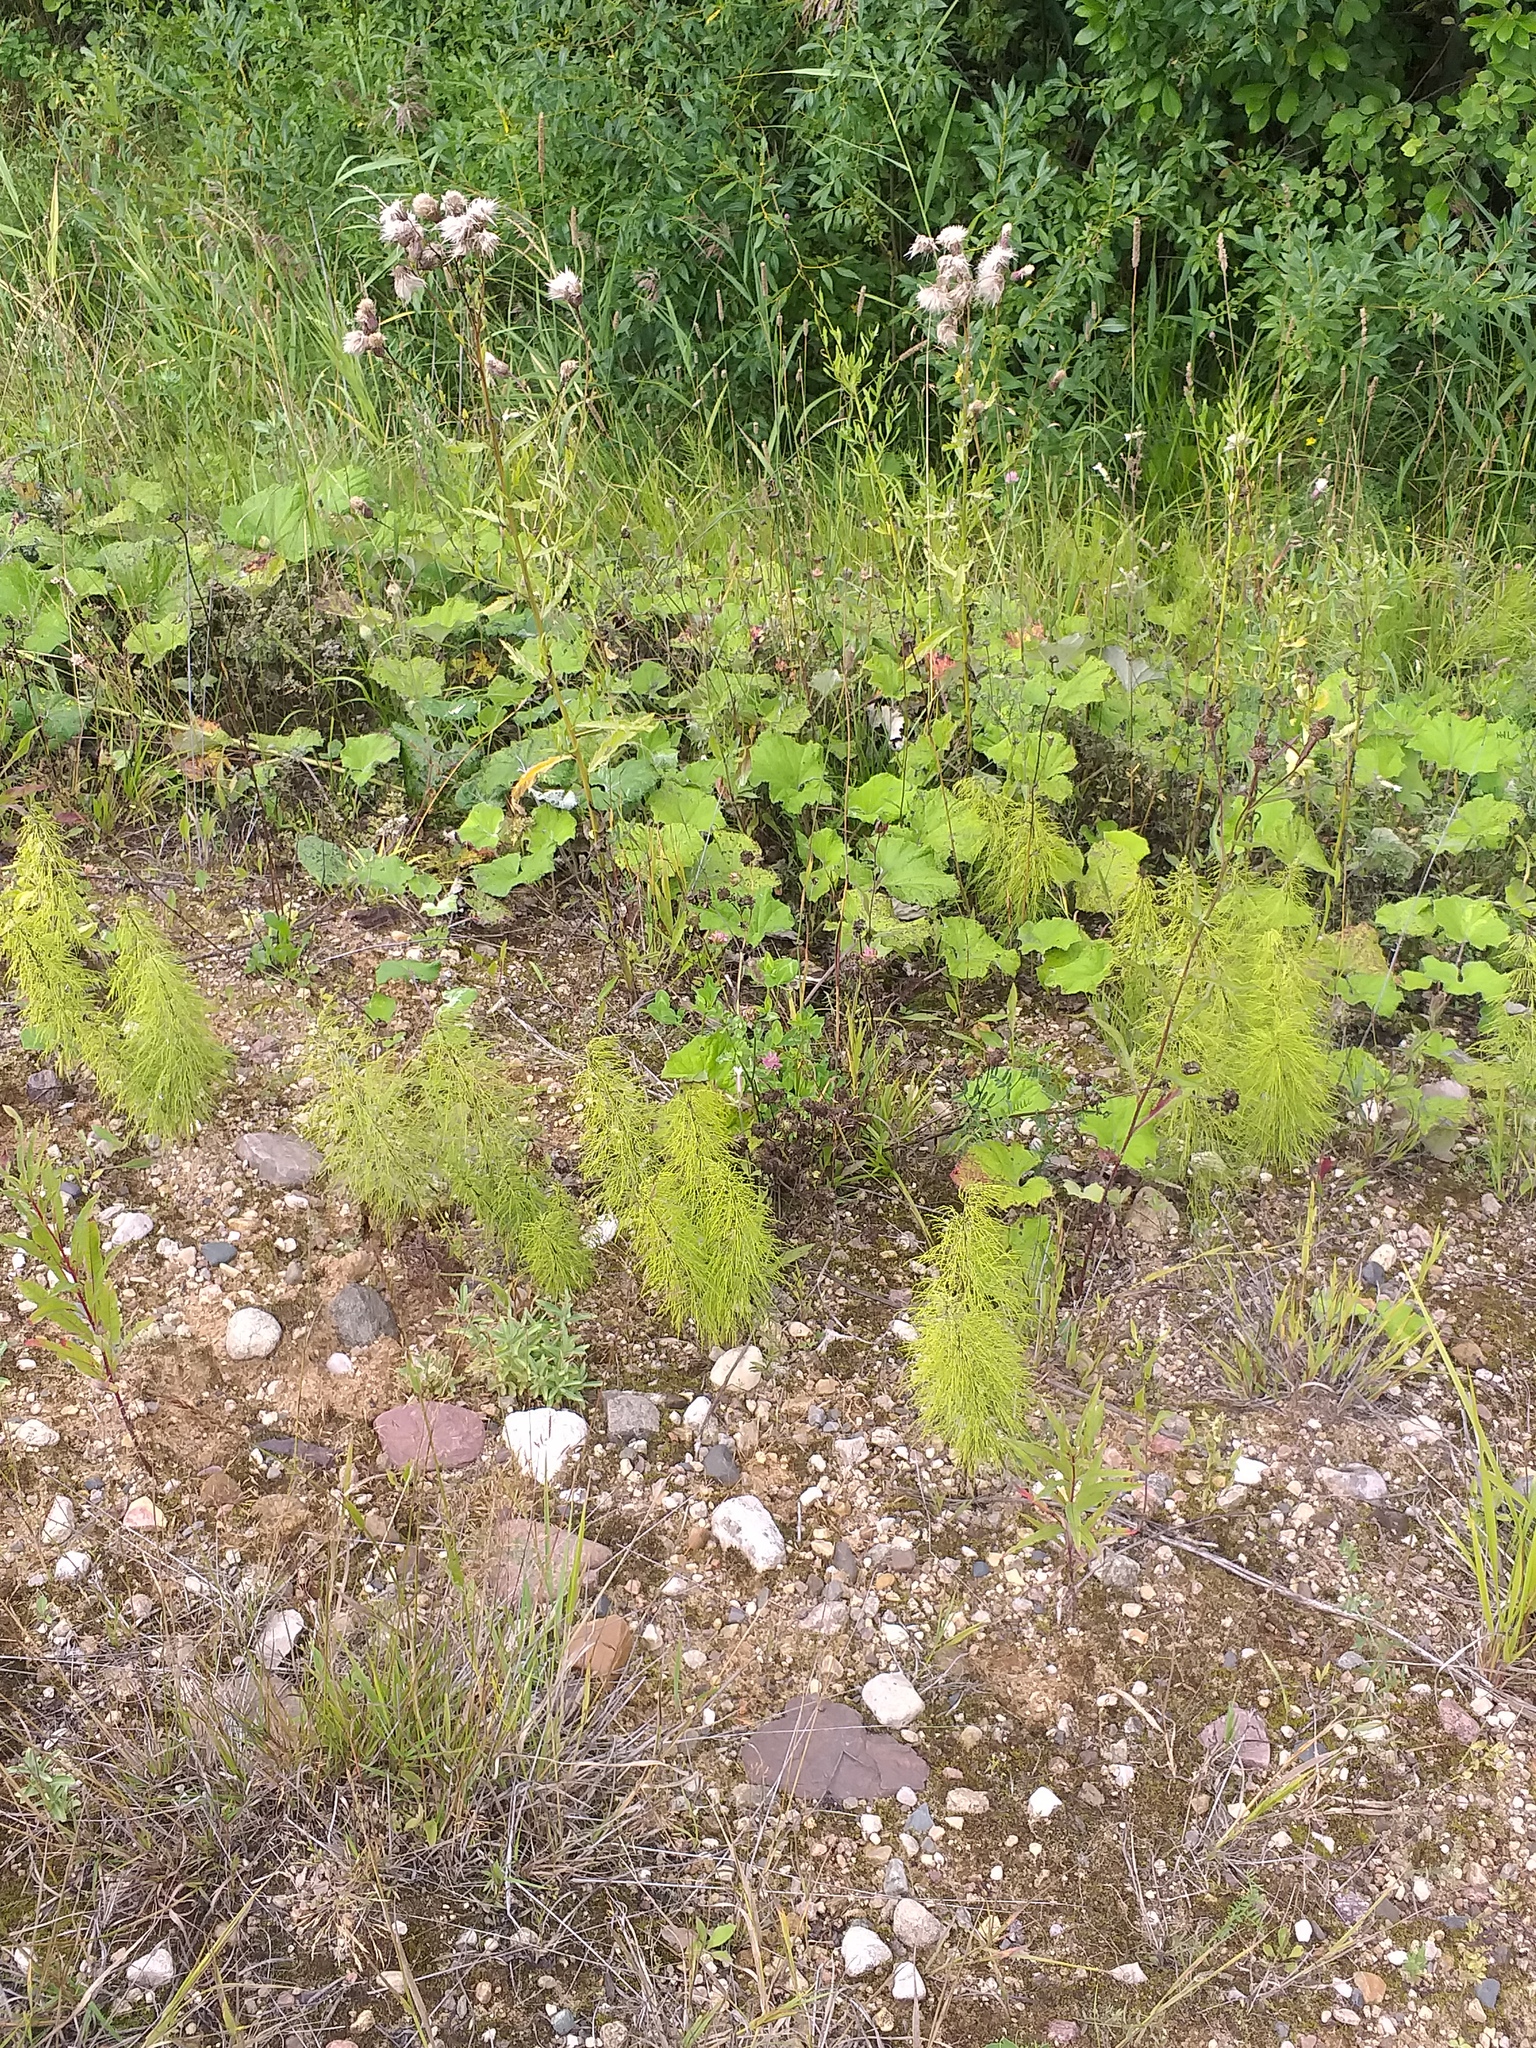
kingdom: Plantae
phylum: Tracheophyta
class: Polypodiopsida
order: Equisetales
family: Equisetaceae
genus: Equisetum
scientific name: Equisetum sylvaticum
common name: Wood horsetail
